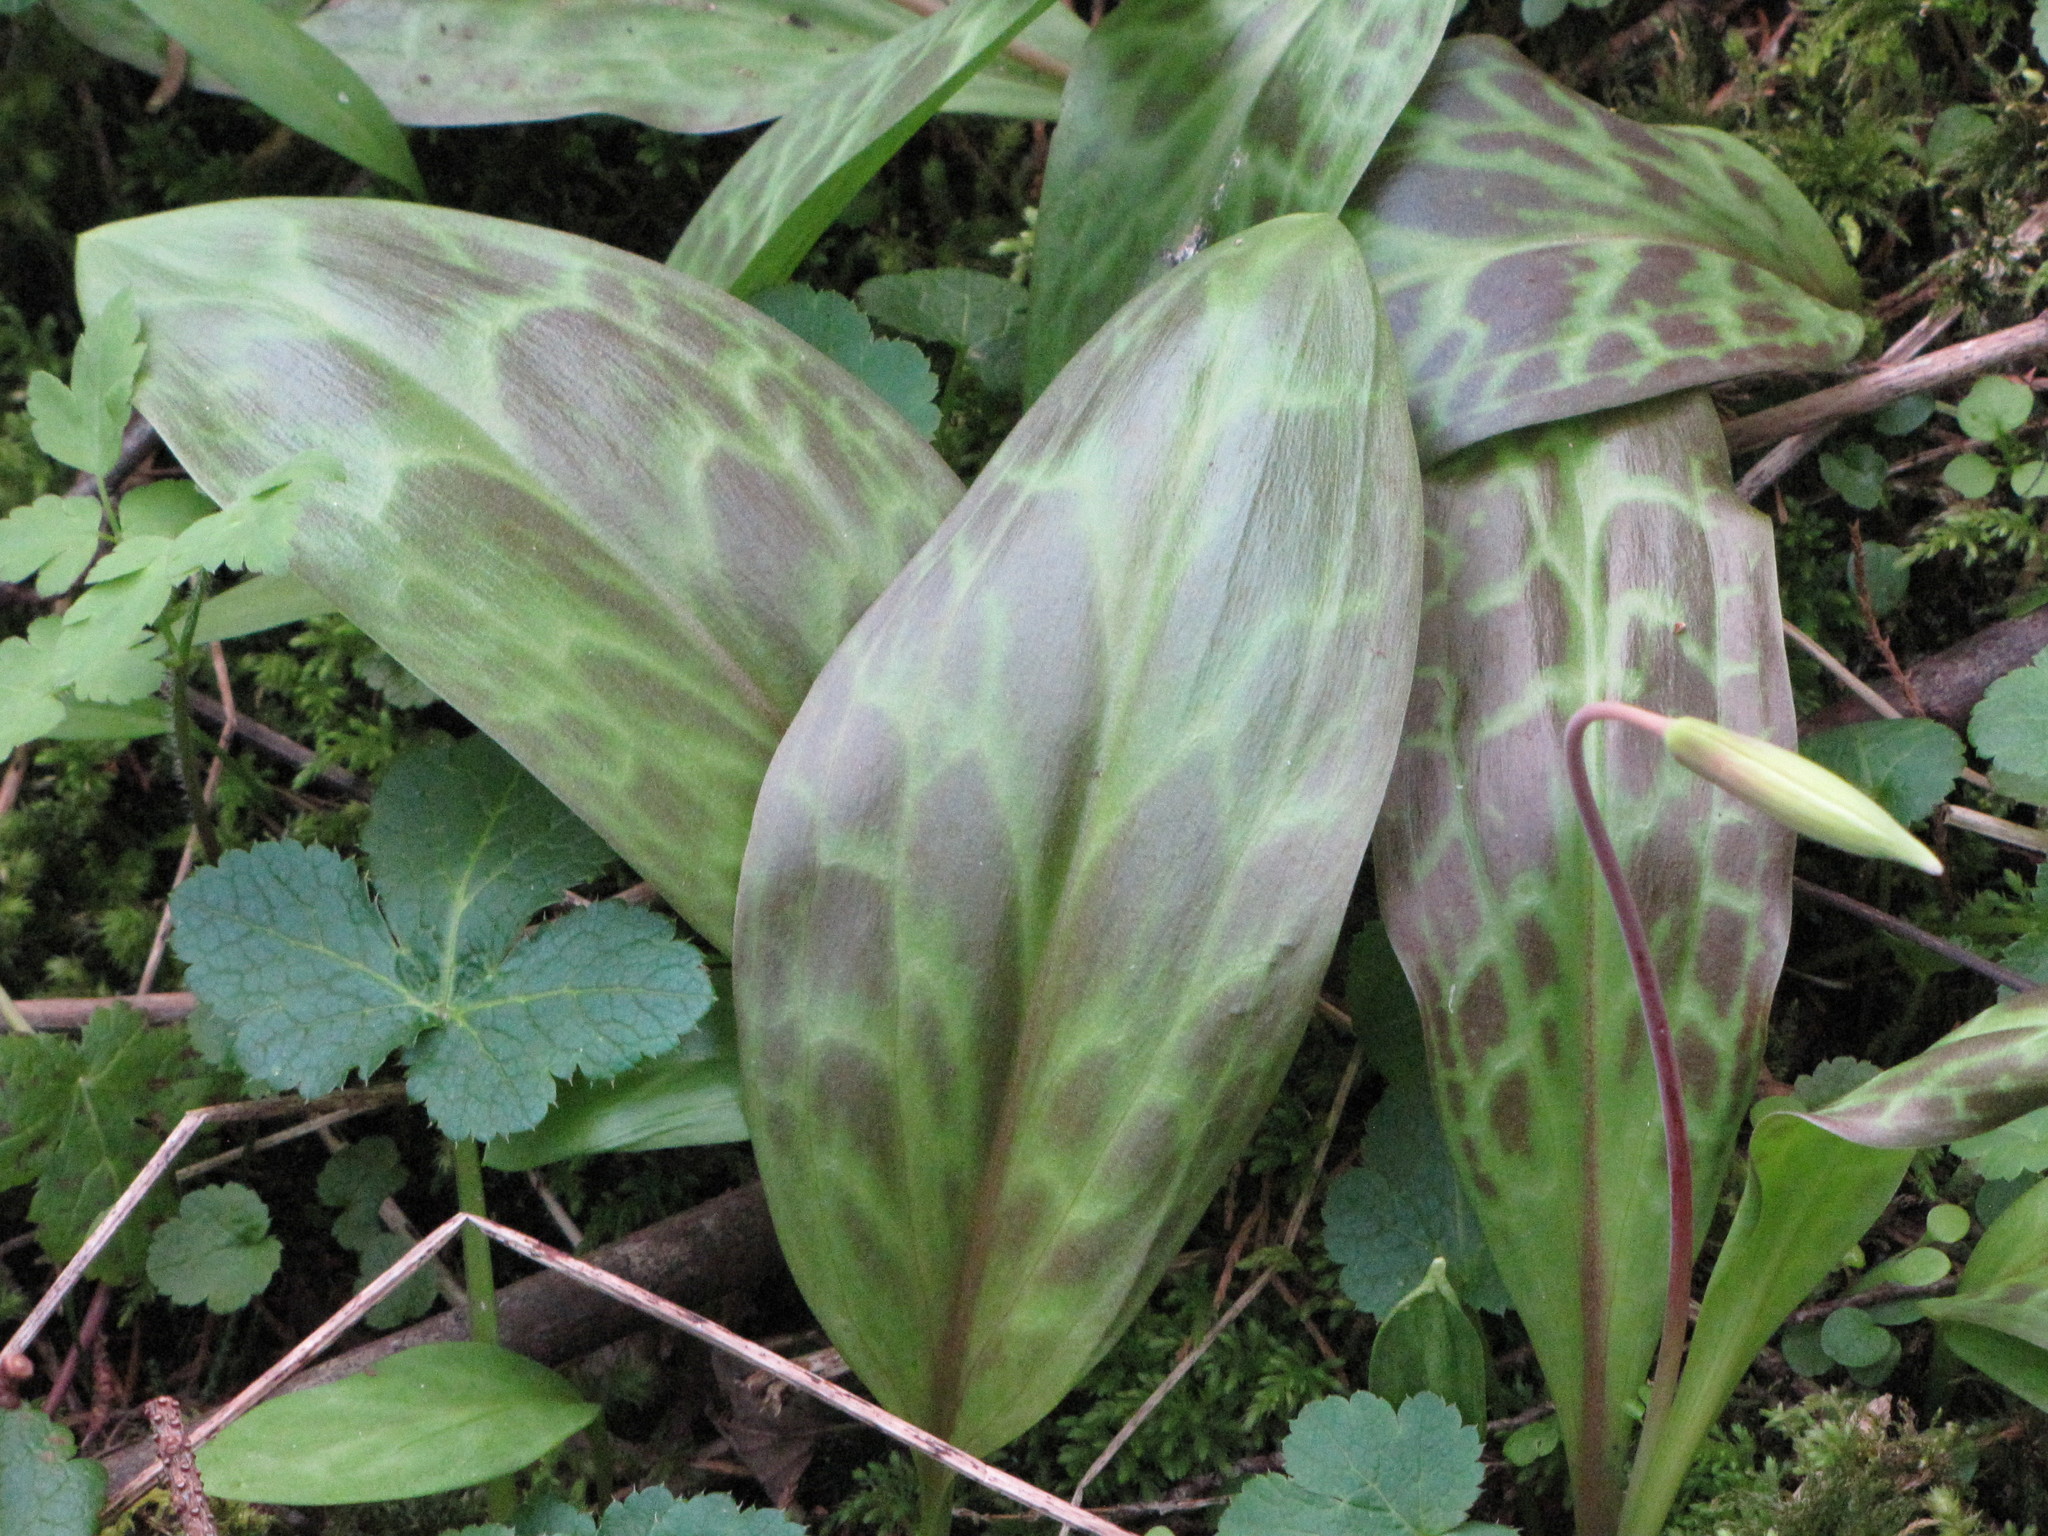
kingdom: Plantae
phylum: Tracheophyta
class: Liliopsida
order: Liliales
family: Liliaceae
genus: Erythronium
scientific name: Erythronium oregonum
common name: Giant adder's-tongue
